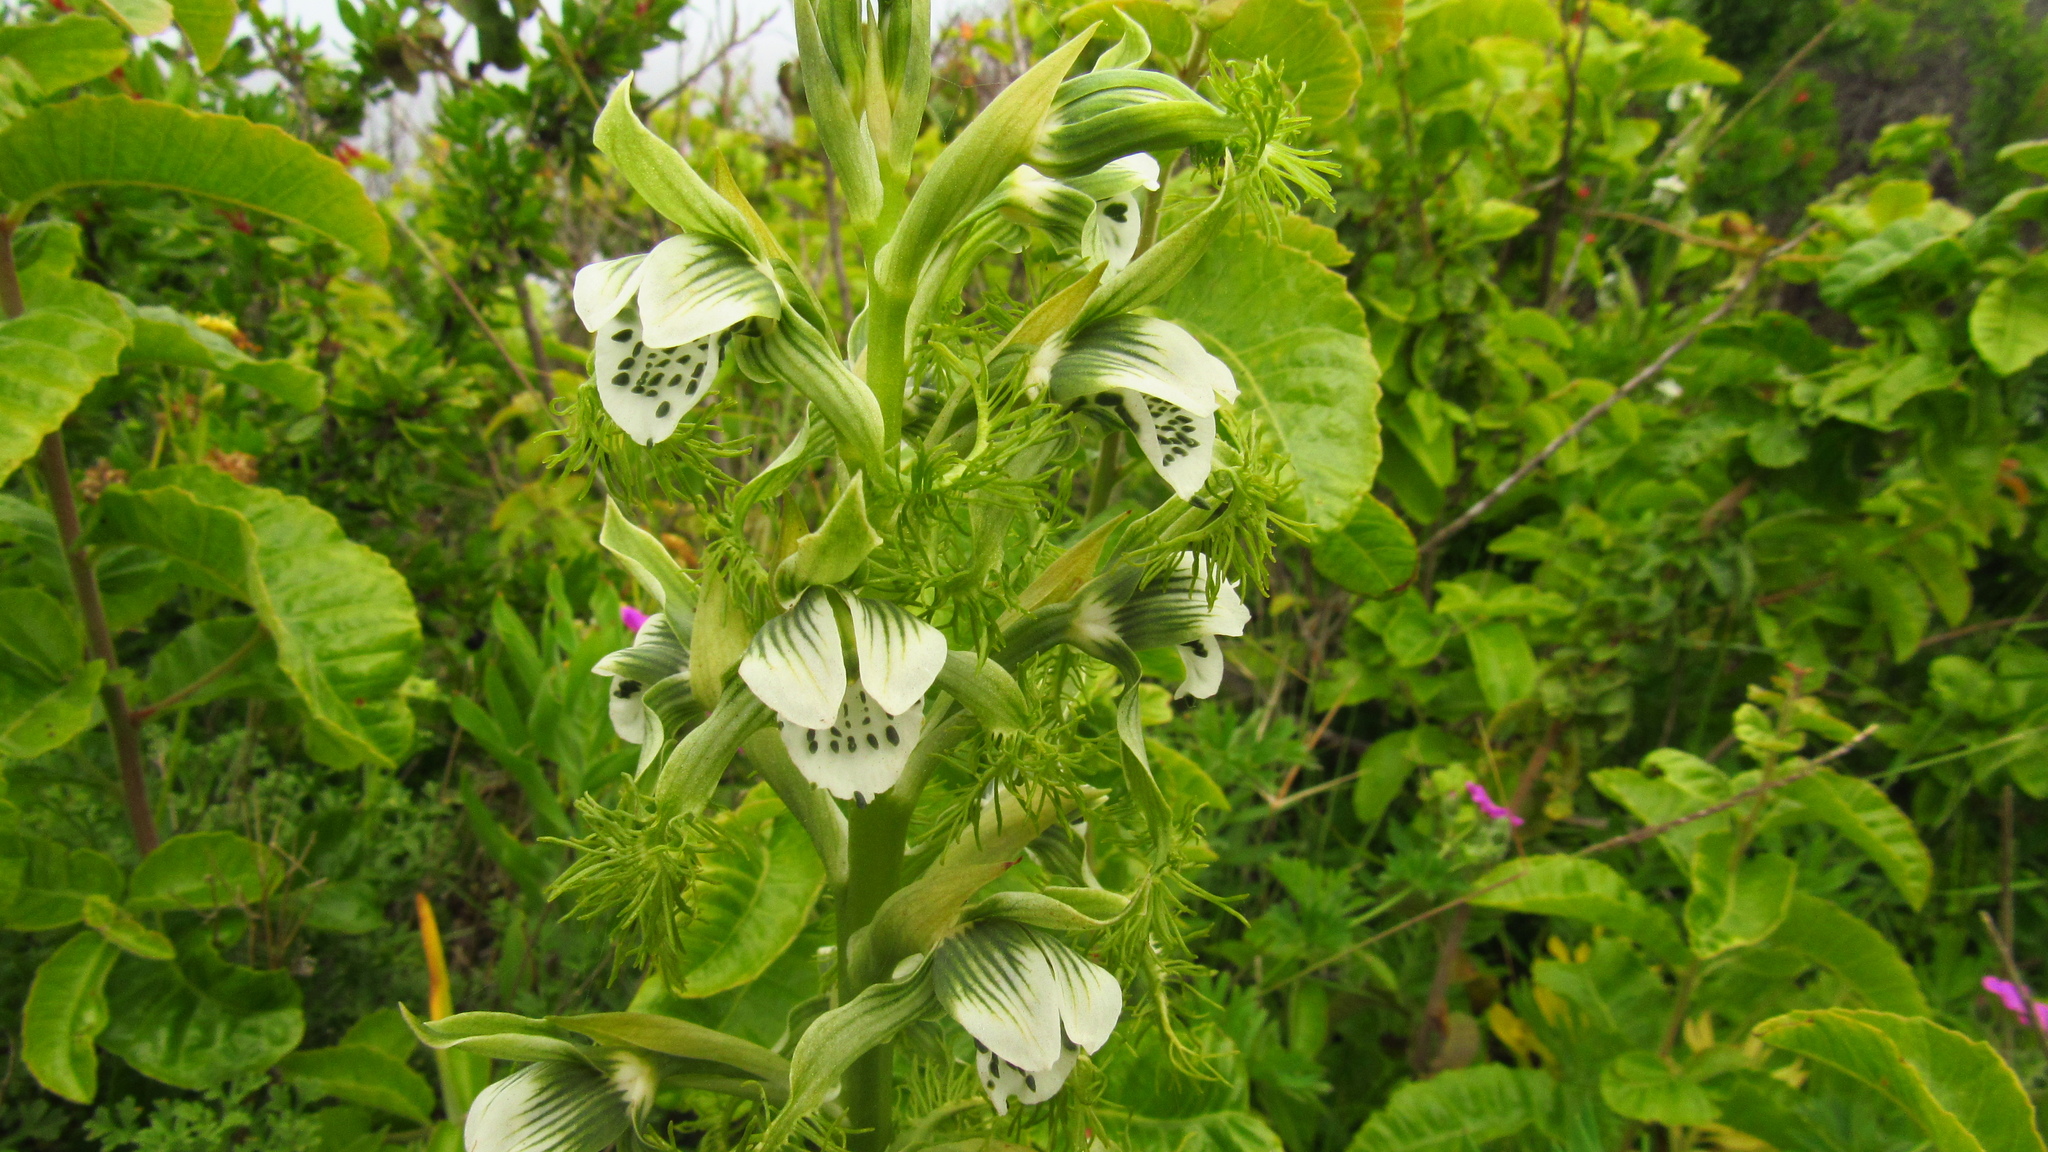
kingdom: Plantae
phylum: Tracheophyta
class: Liliopsida
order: Asparagales
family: Orchidaceae
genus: Bipinnula
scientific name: Bipinnula fimbriata
